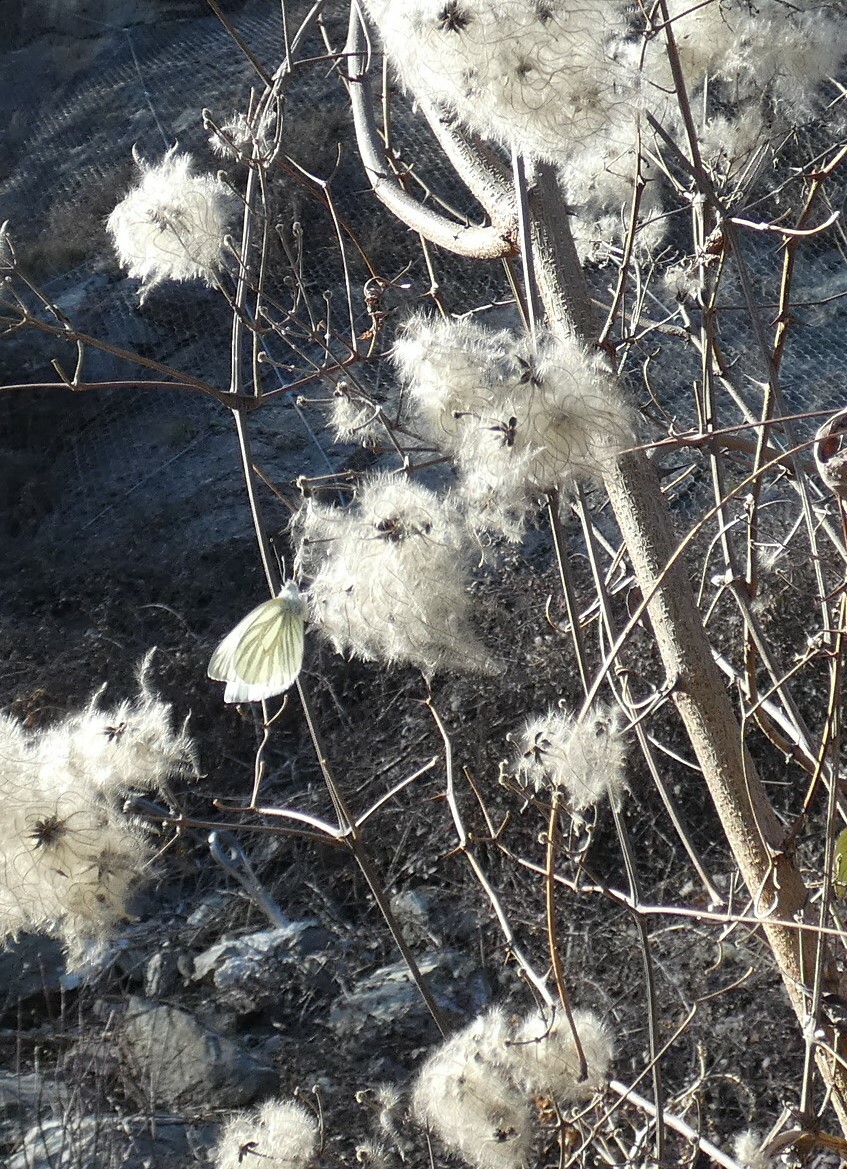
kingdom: Animalia
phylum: Arthropoda
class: Insecta
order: Lepidoptera
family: Pieridae
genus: Pieris
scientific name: Pieris napi
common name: Green-veined white
